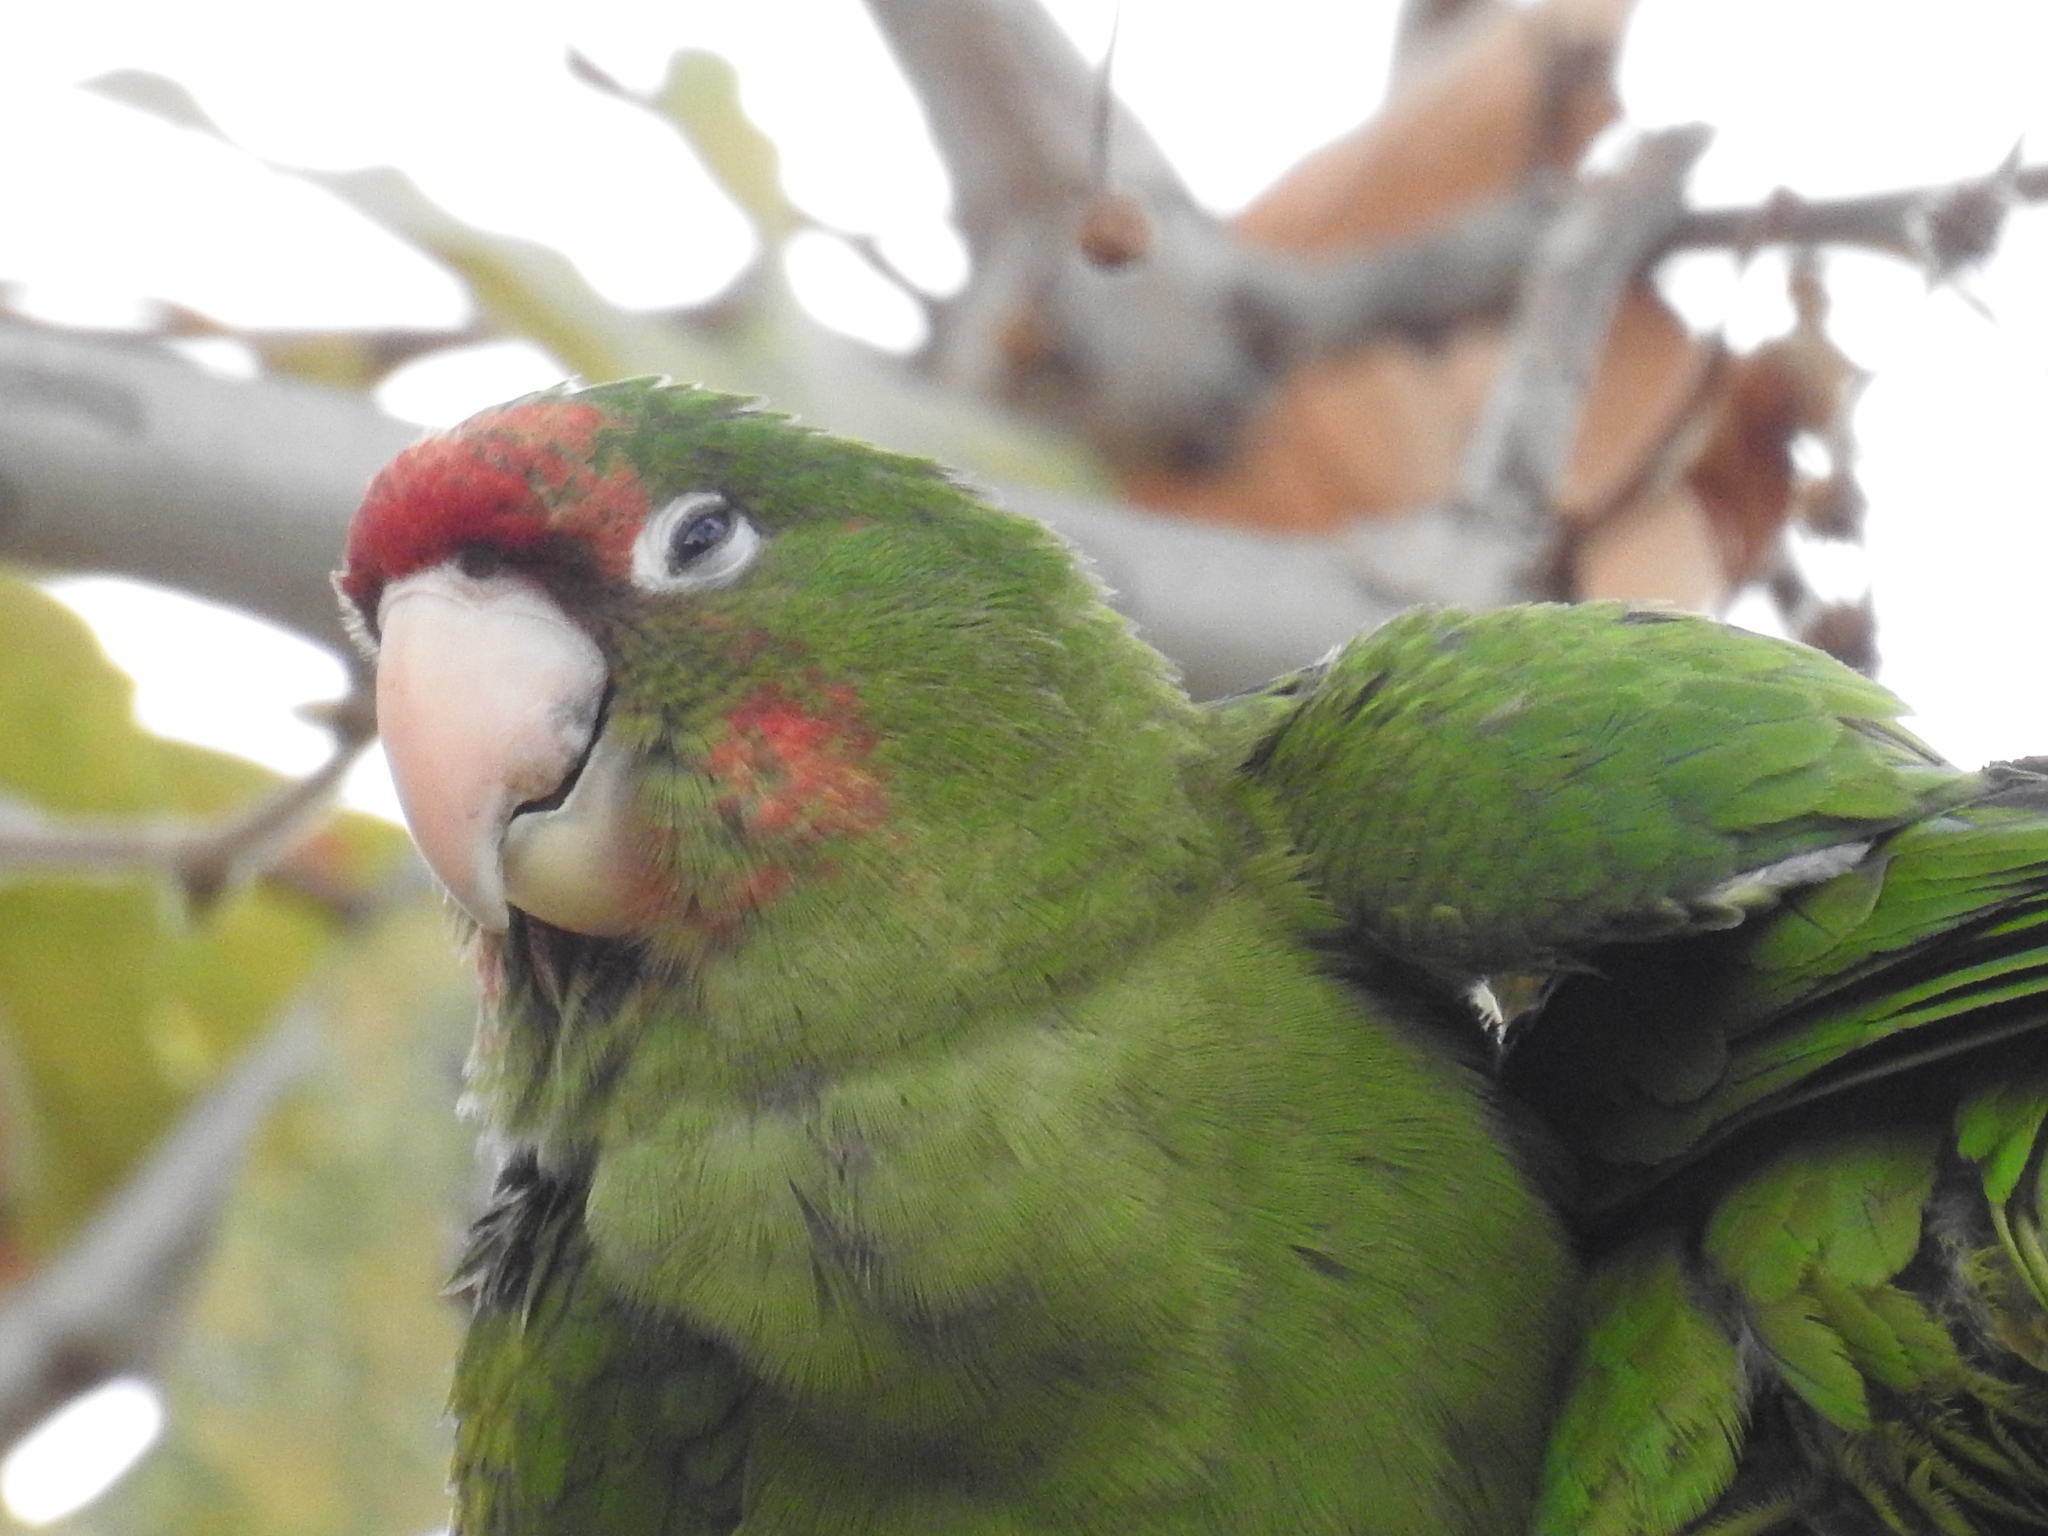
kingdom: Animalia
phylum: Chordata
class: Aves
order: Psittaciformes
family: Psittacidae
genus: Aratinga
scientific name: Aratinga mitrata
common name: Mitred parakeet
